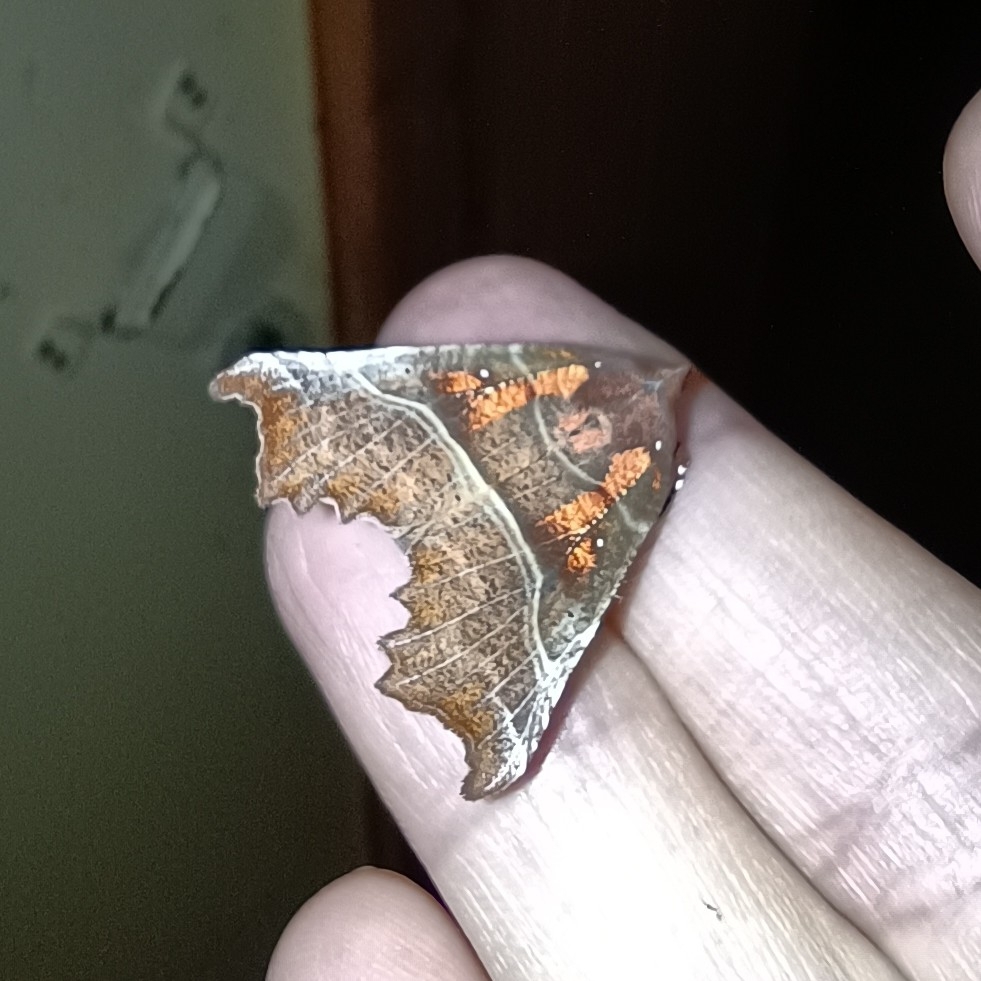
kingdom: Animalia
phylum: Arthropoda
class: Insecta
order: Lepidoptera
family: Erebidae
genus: Scoliopteryx
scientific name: Scoliopteryx libatrix
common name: Herald
